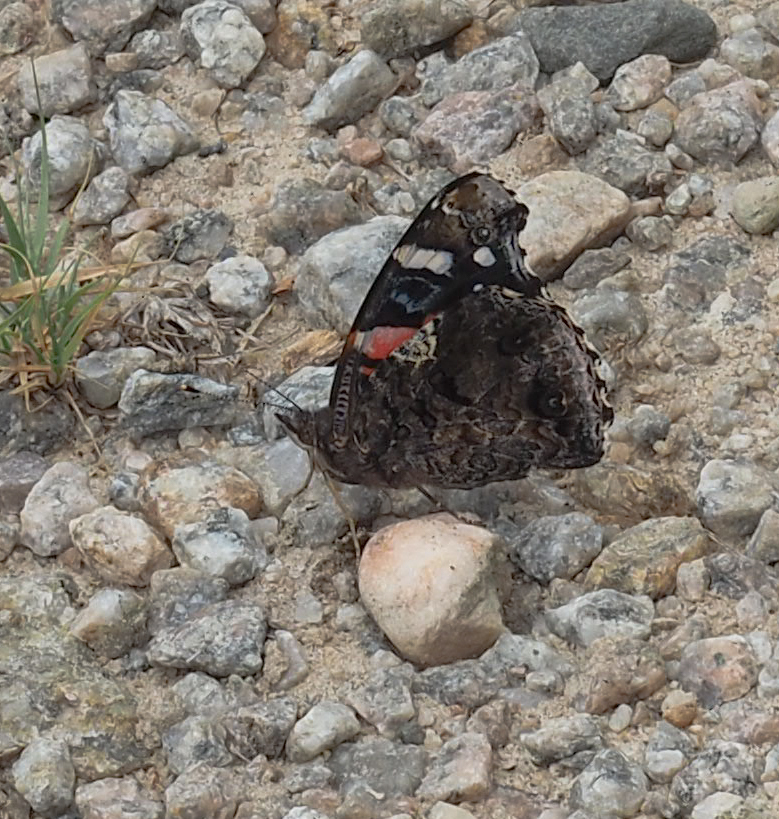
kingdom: Animalia
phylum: Arthropoda
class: Insecta
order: Lepidoptera
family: Nymphalidae
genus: Vanessa
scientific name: Vanessa atalanta
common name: Red admiral
